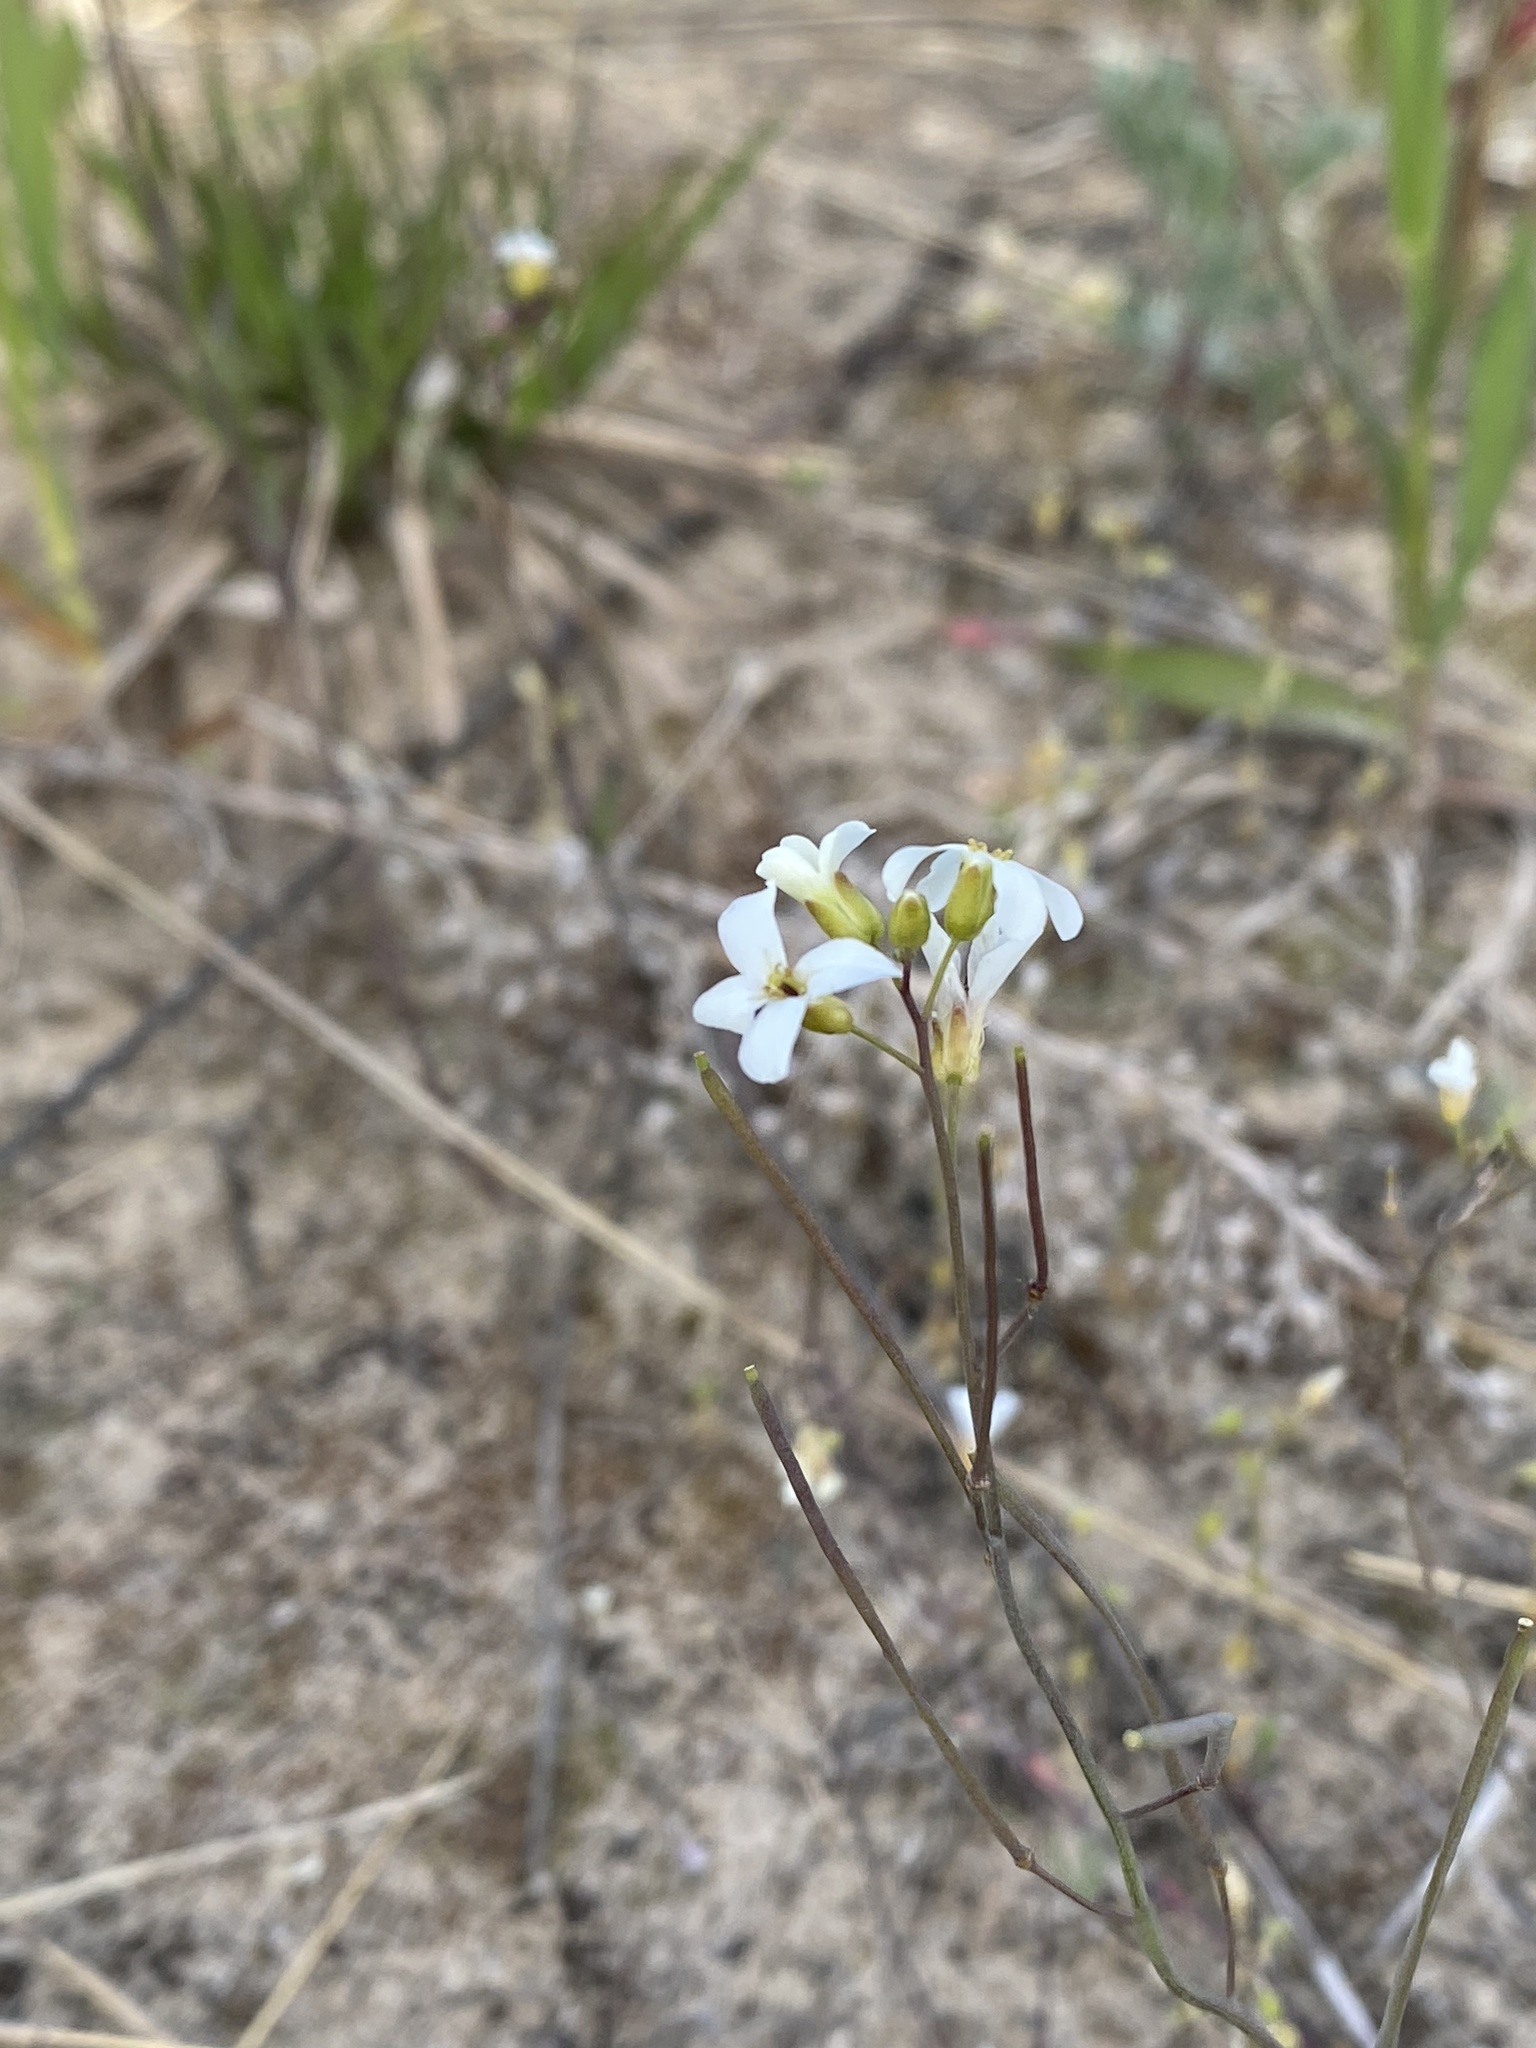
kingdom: Plantae
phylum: Tracheophyta
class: Magnoliopsida
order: Brassicales
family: Brassicaceae
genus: Arabidopsis
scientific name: Arabidopsis lyrata
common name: Lyrate rockcress
